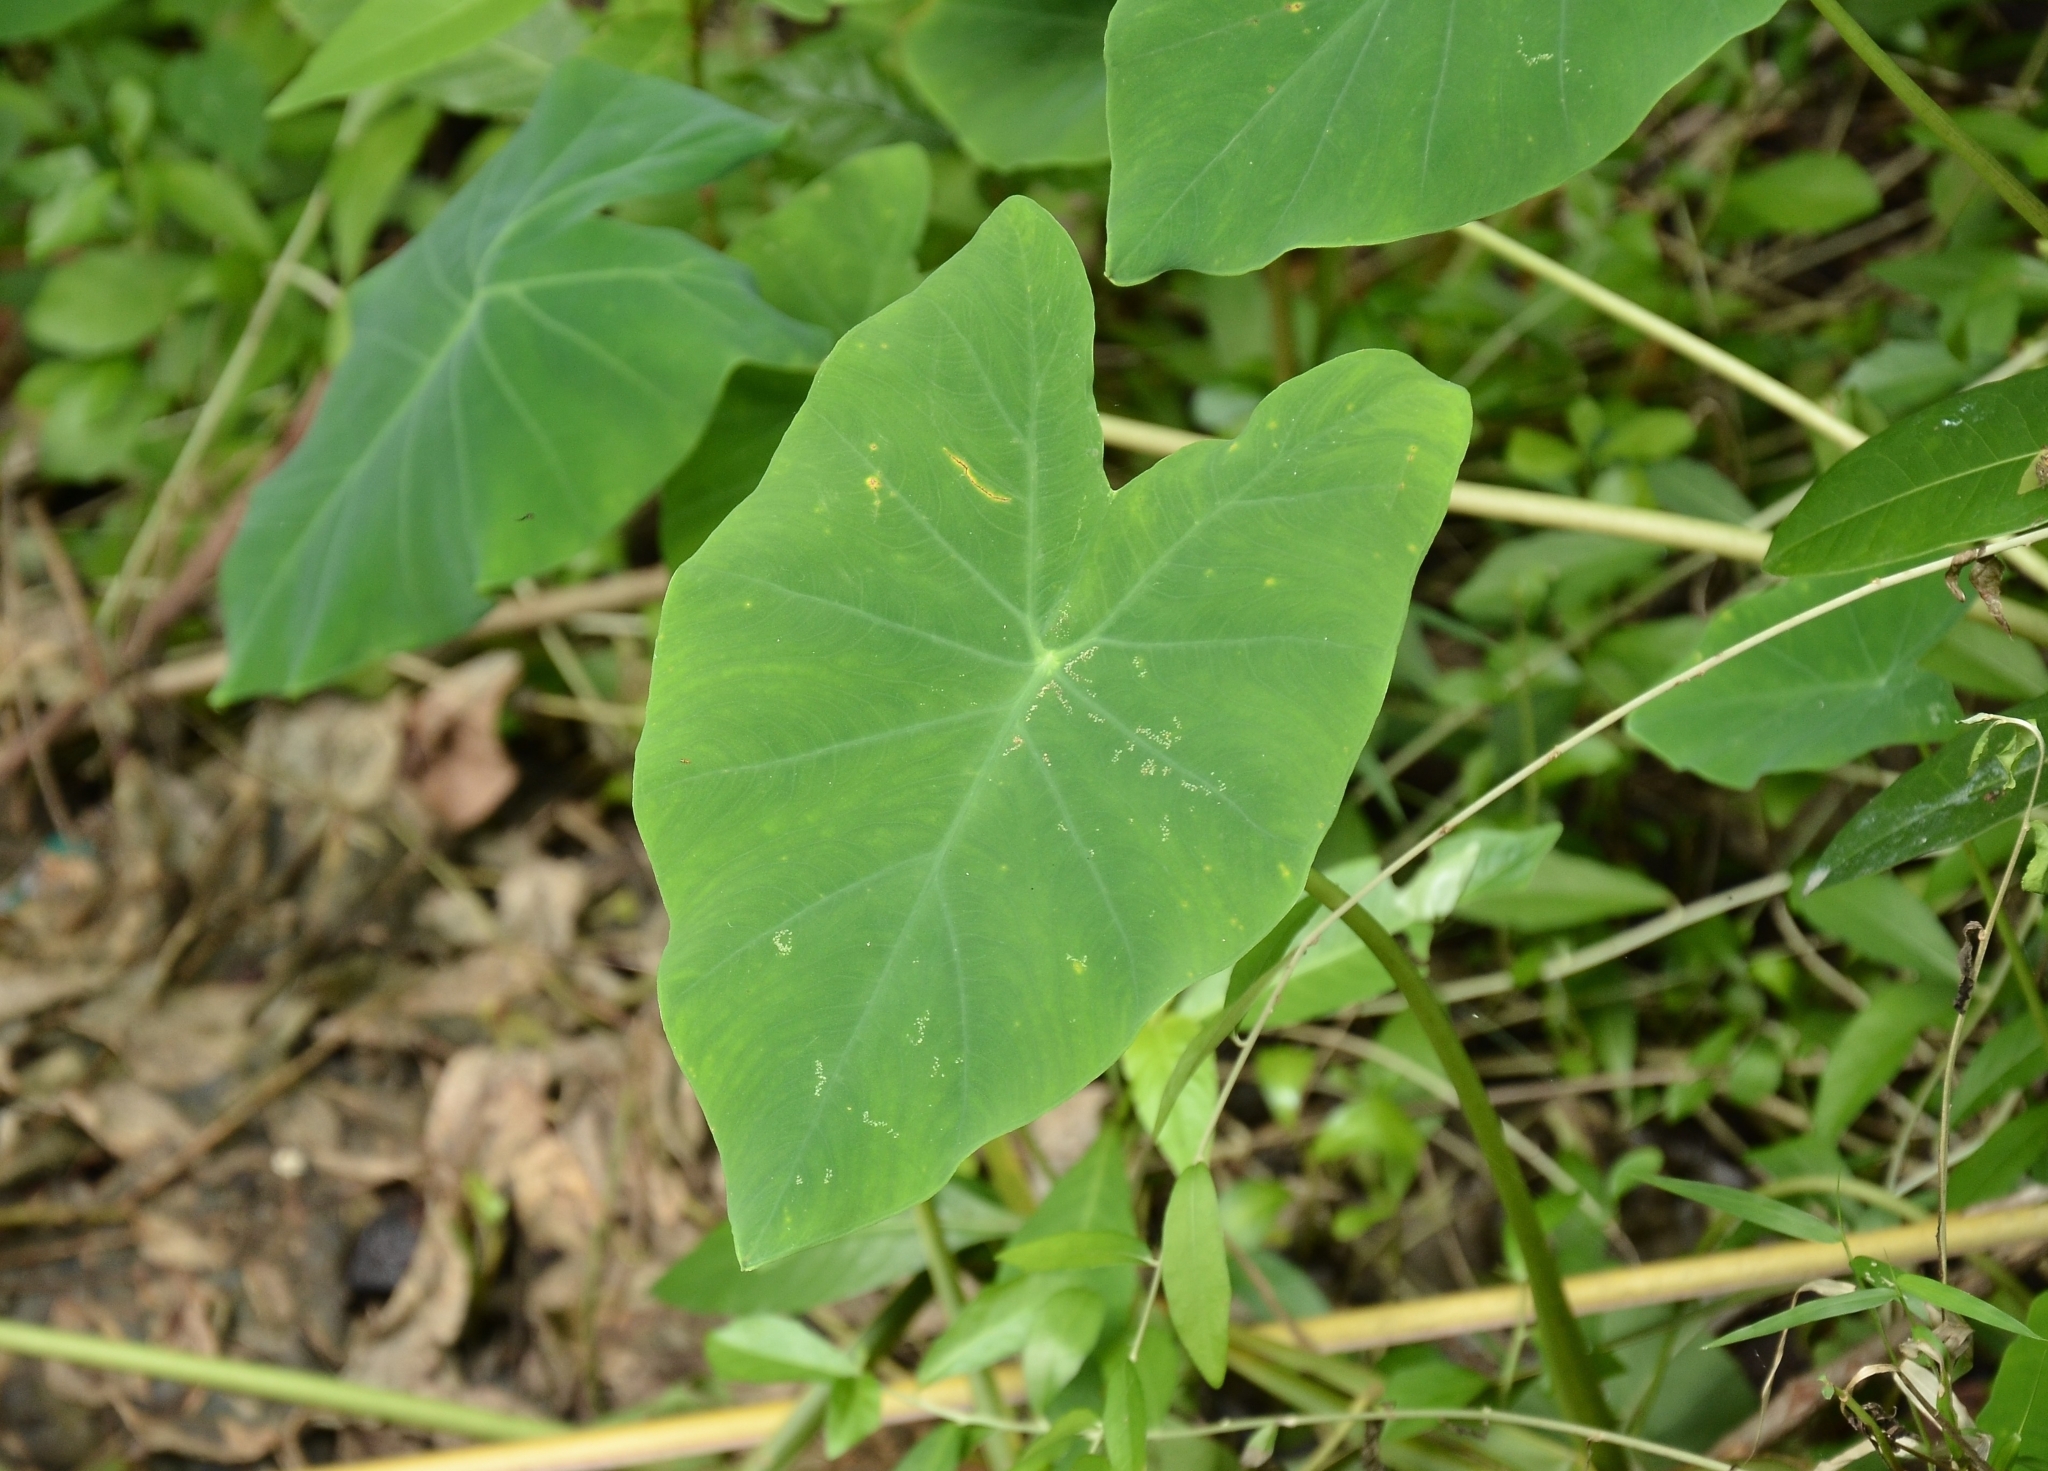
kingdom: Plantae
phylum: Tracheophyta
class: Liliopsida
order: Alismatales
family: Araceae
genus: Colocasia
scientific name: Colocasia esculenta
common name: Taro
